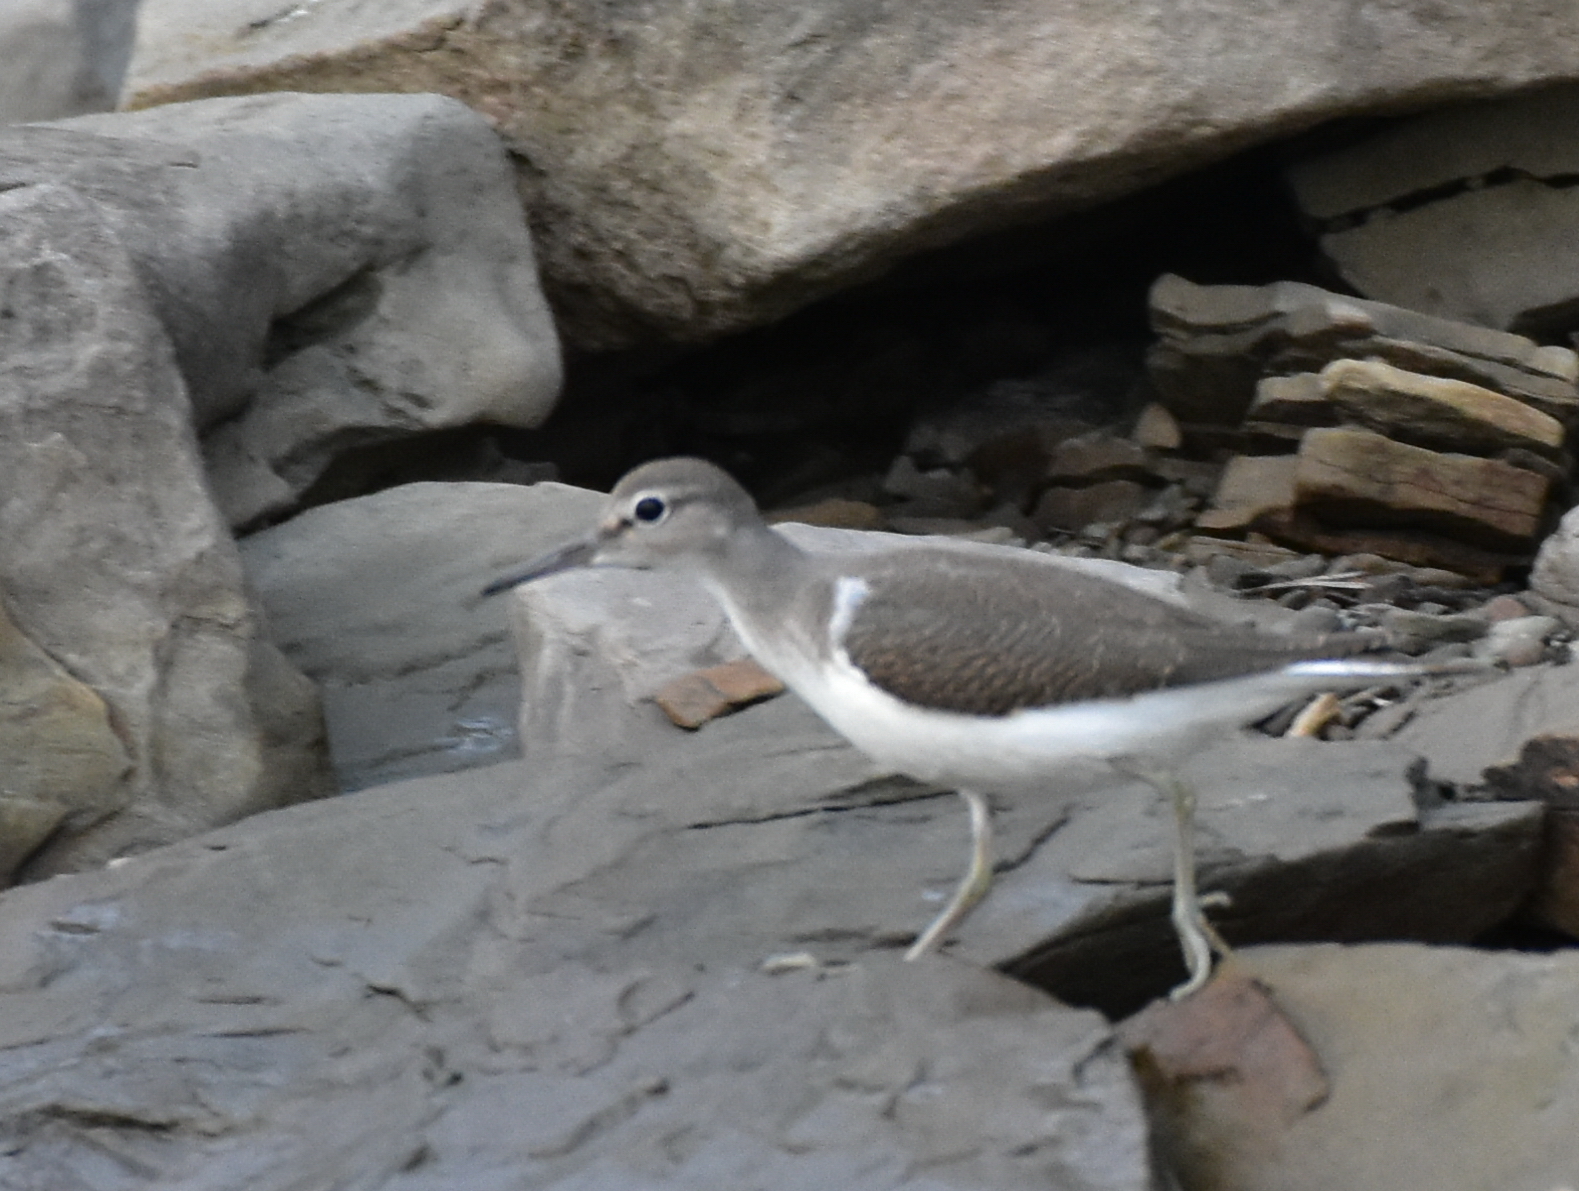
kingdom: Animalia
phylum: Chordata
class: Aves
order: Charadriiformes
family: Scolopacidae
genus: Actitis
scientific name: Actitis hypoleucos
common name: Common sandpiper
